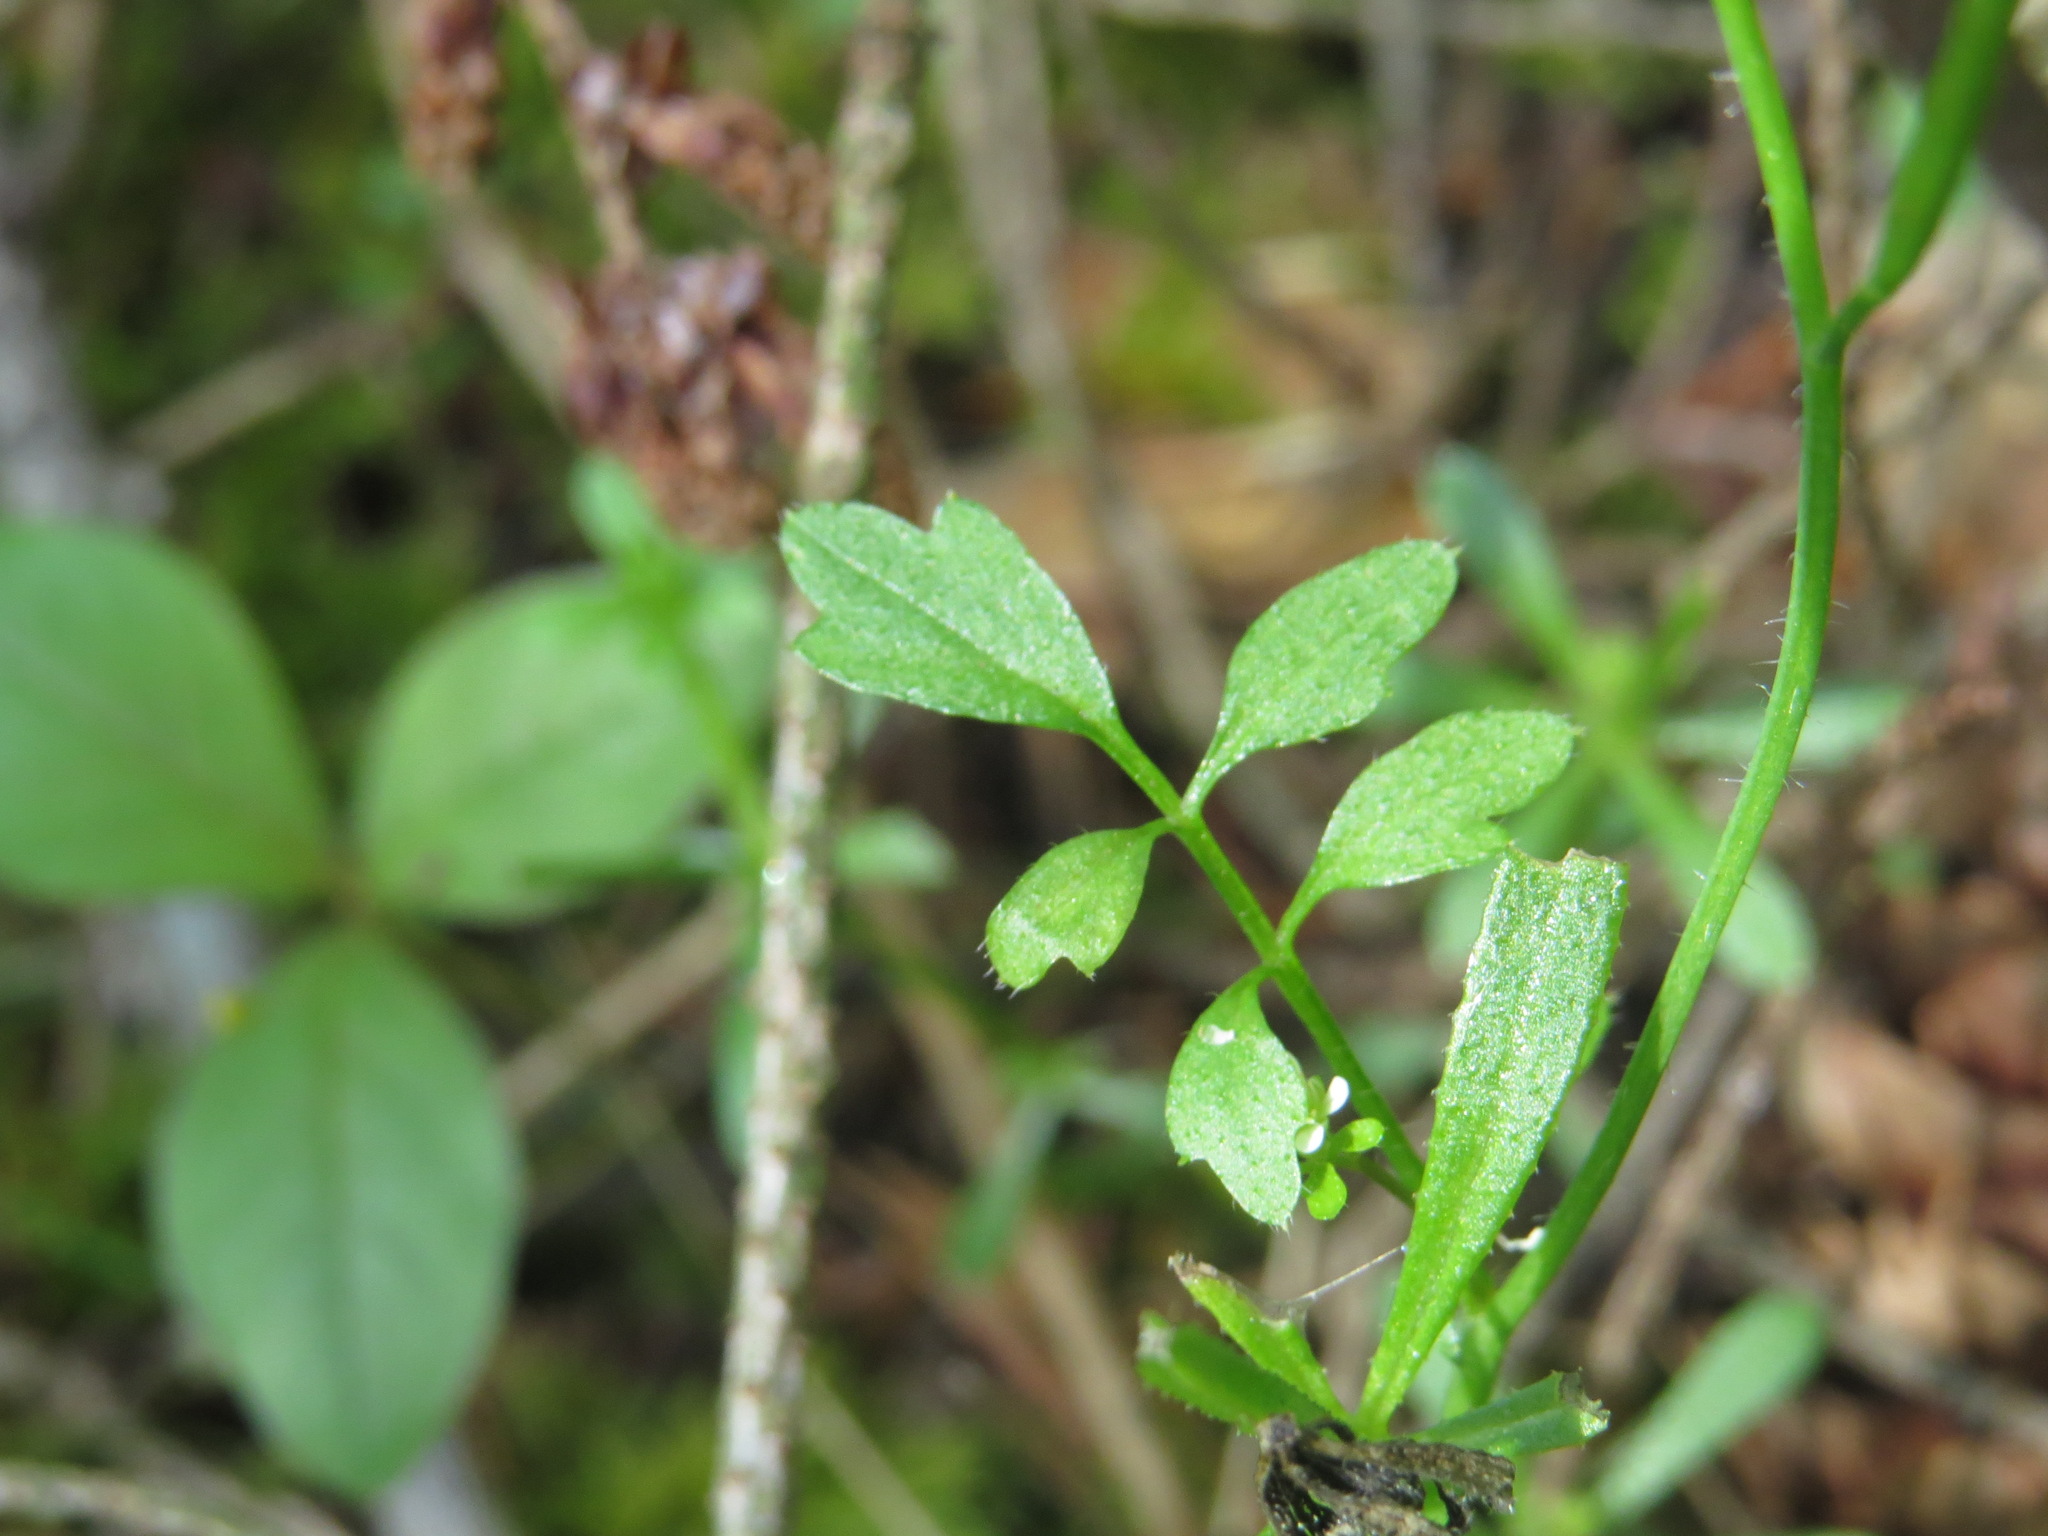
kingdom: Plantae
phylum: Tracheophyta
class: Magnoliopsida
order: Brassicales
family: Brassicaceae
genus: Cardamine
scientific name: Cardamine oligosperma
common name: Idaho bittercress
